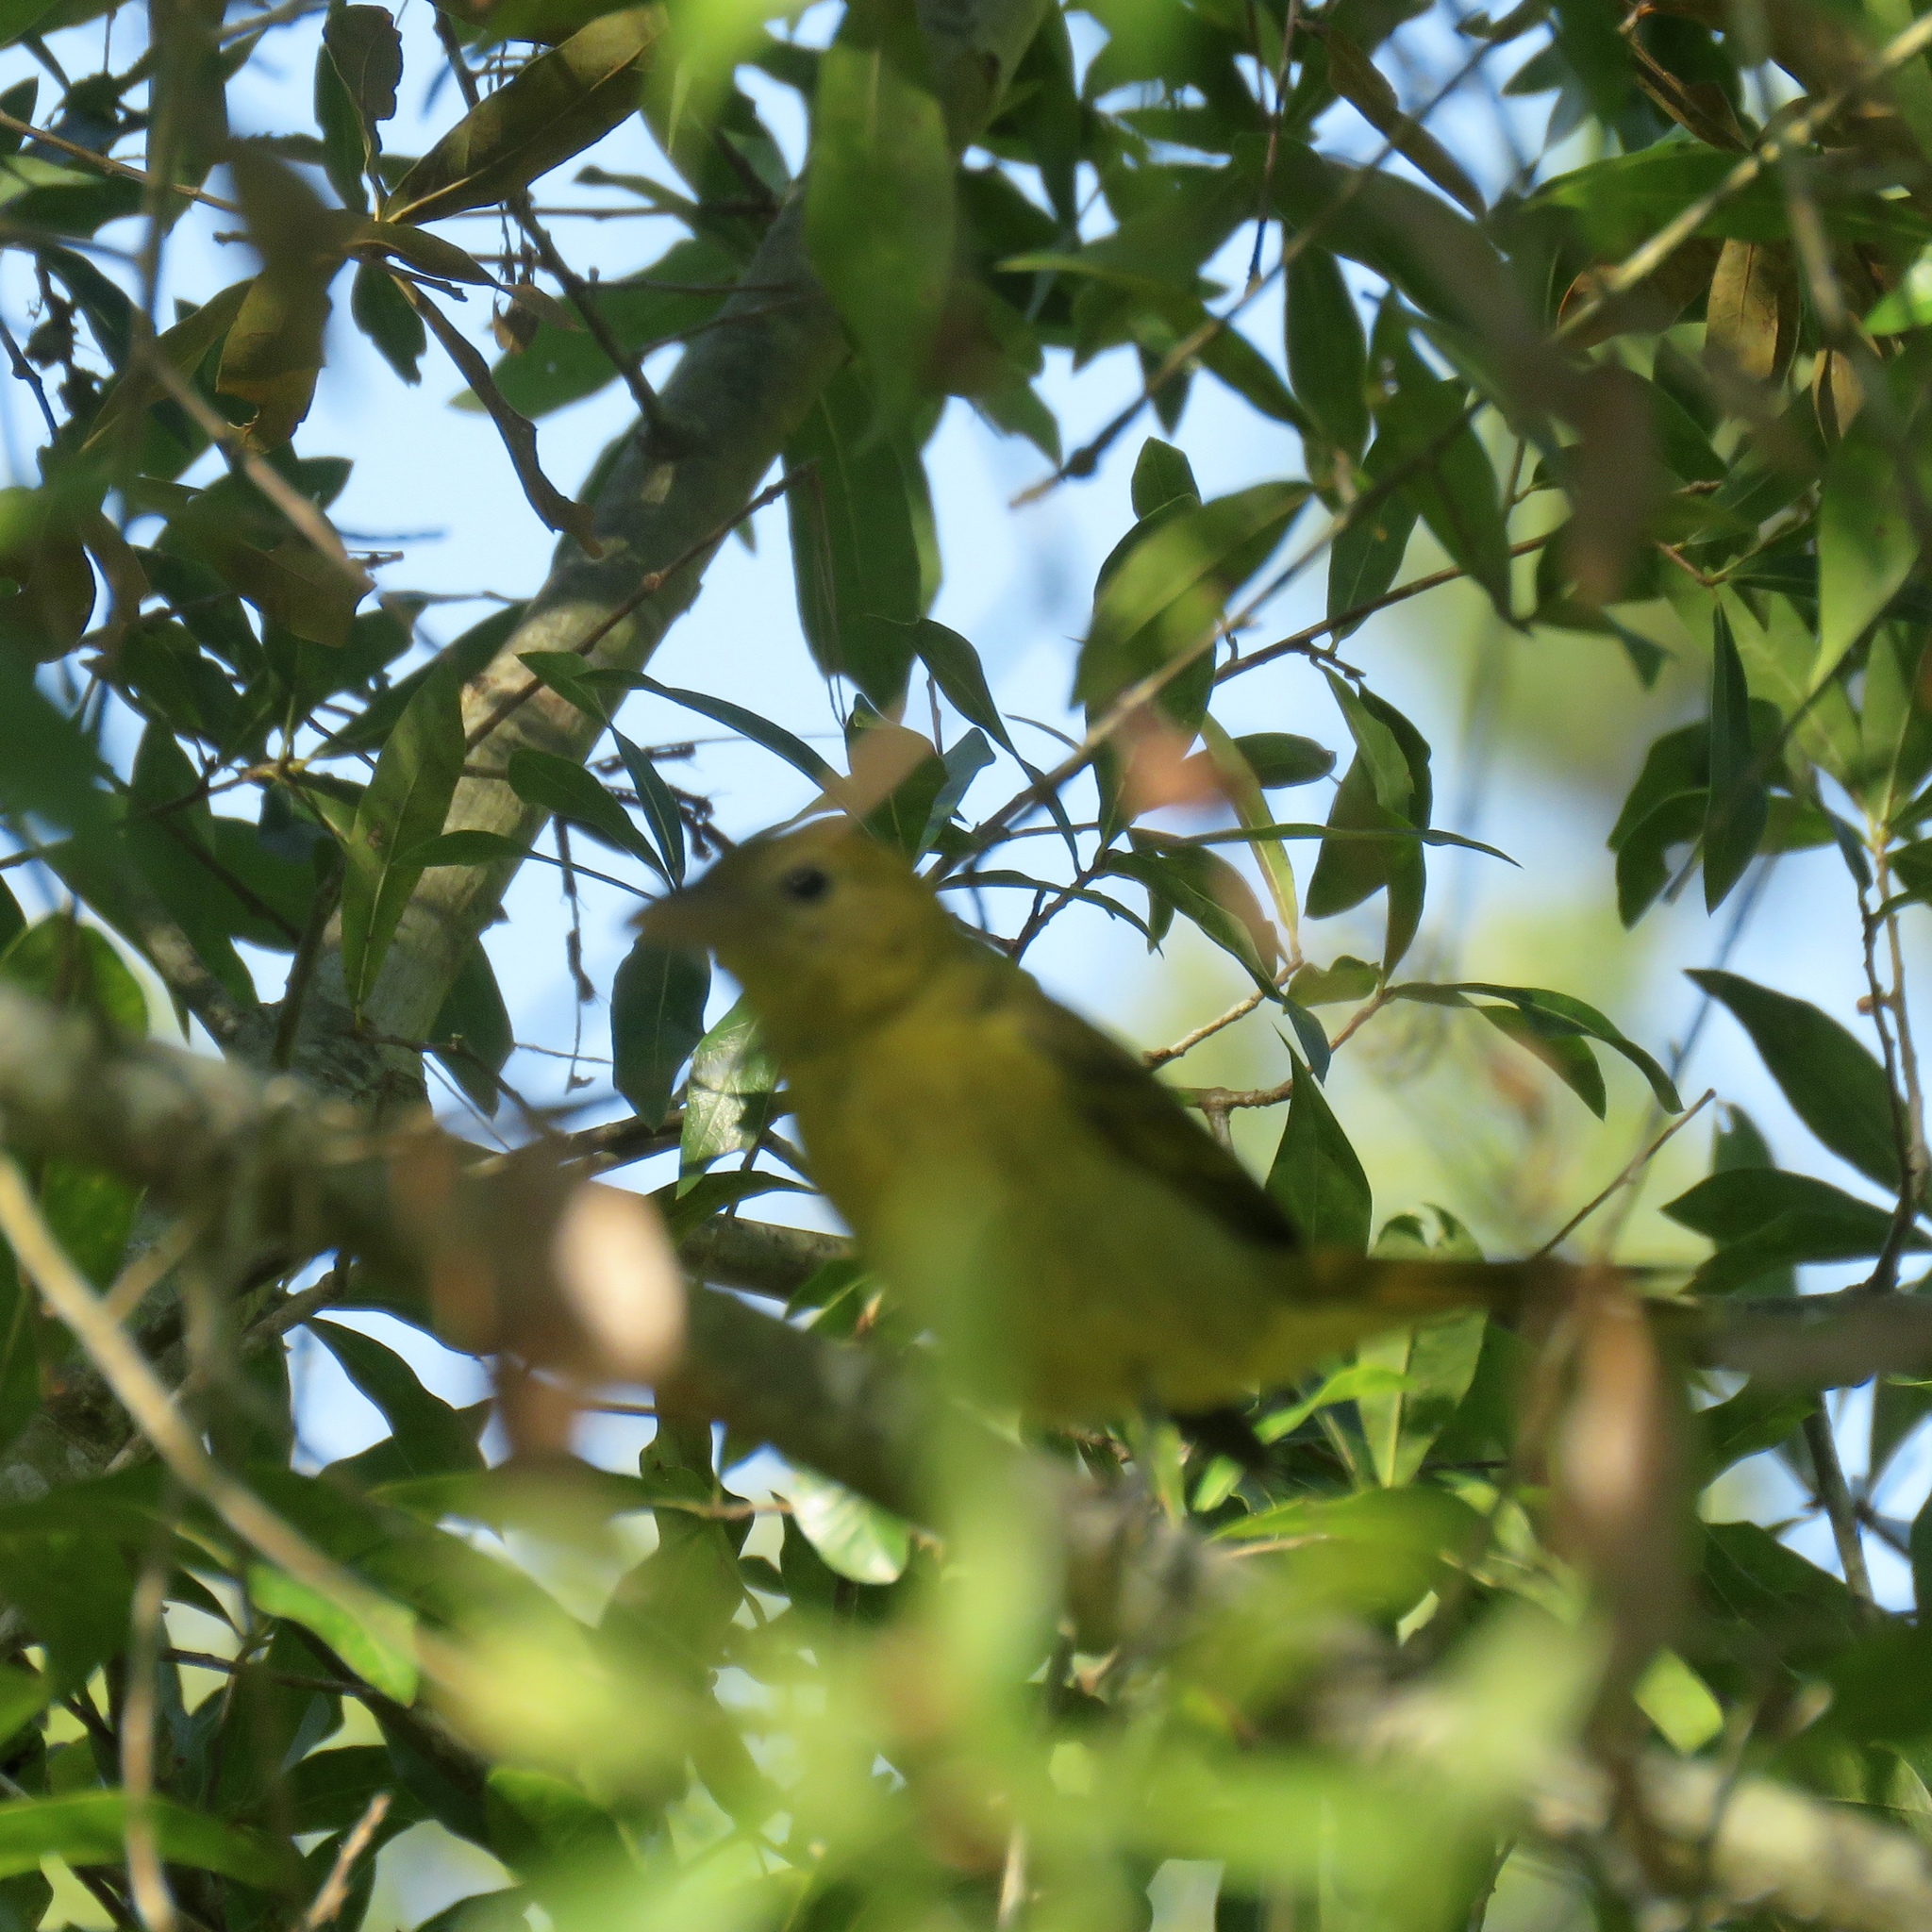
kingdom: Animalia
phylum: Chordata
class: Aves
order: Passeriformes
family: Cardinalidae
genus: Piranga
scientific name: Piranga rubra
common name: Summer tanager
